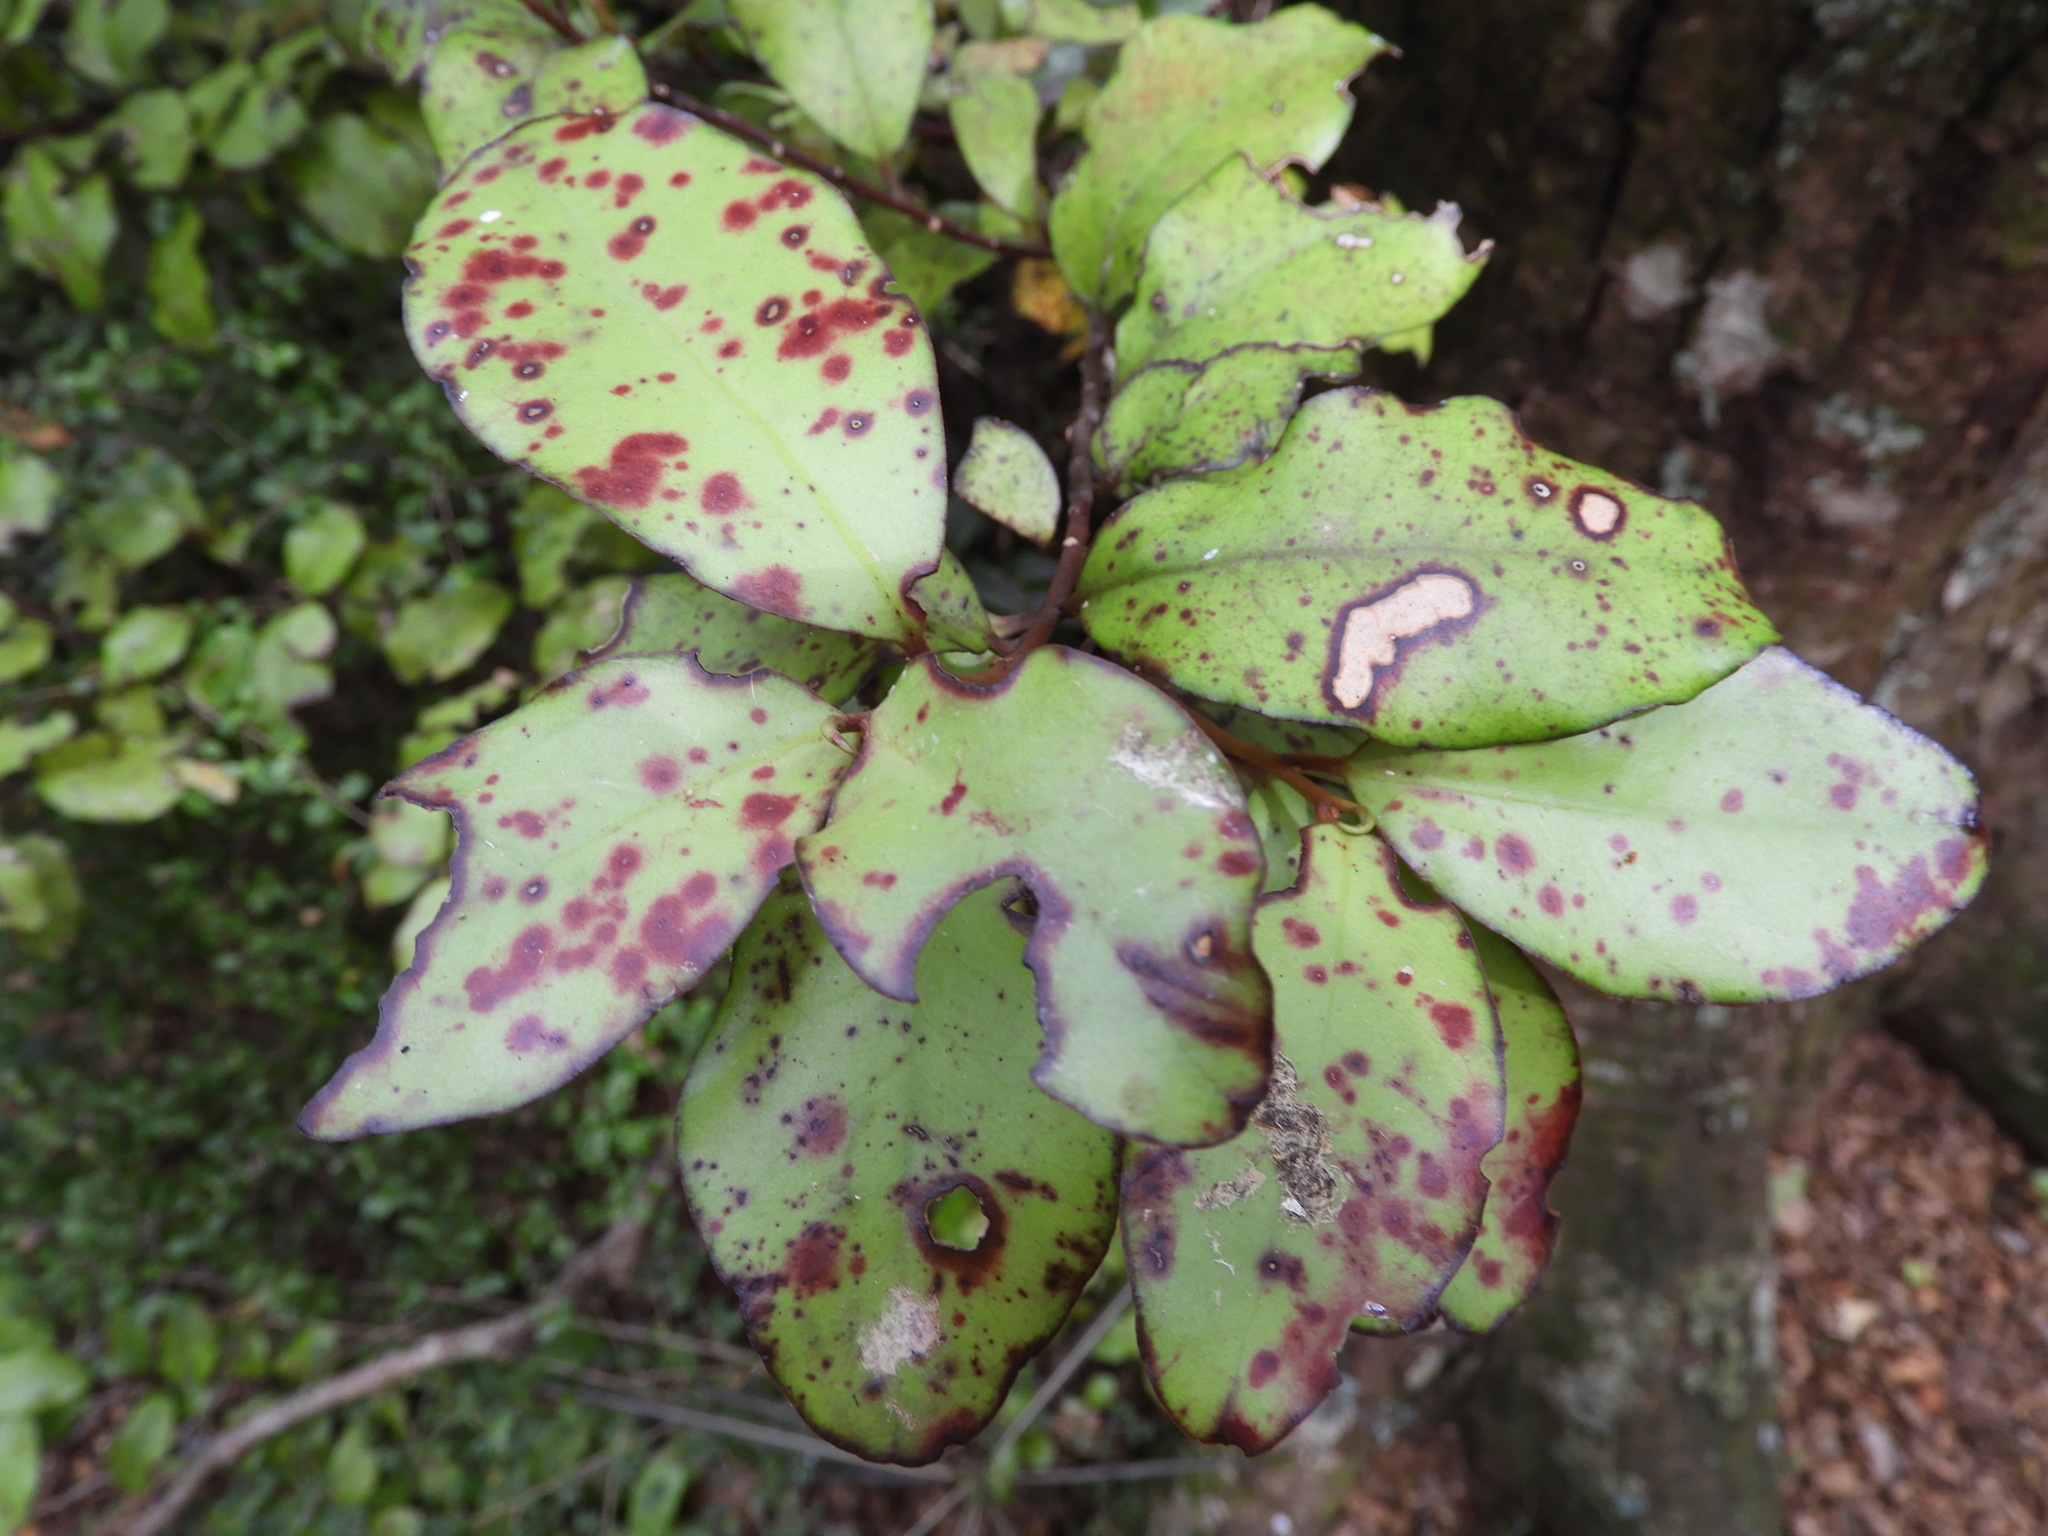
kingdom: Plantae
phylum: Tracheophyta
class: Magnoliopsida
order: Canellales
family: Winteraceae
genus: Pseudowintera
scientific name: Pseudowintera colorata
